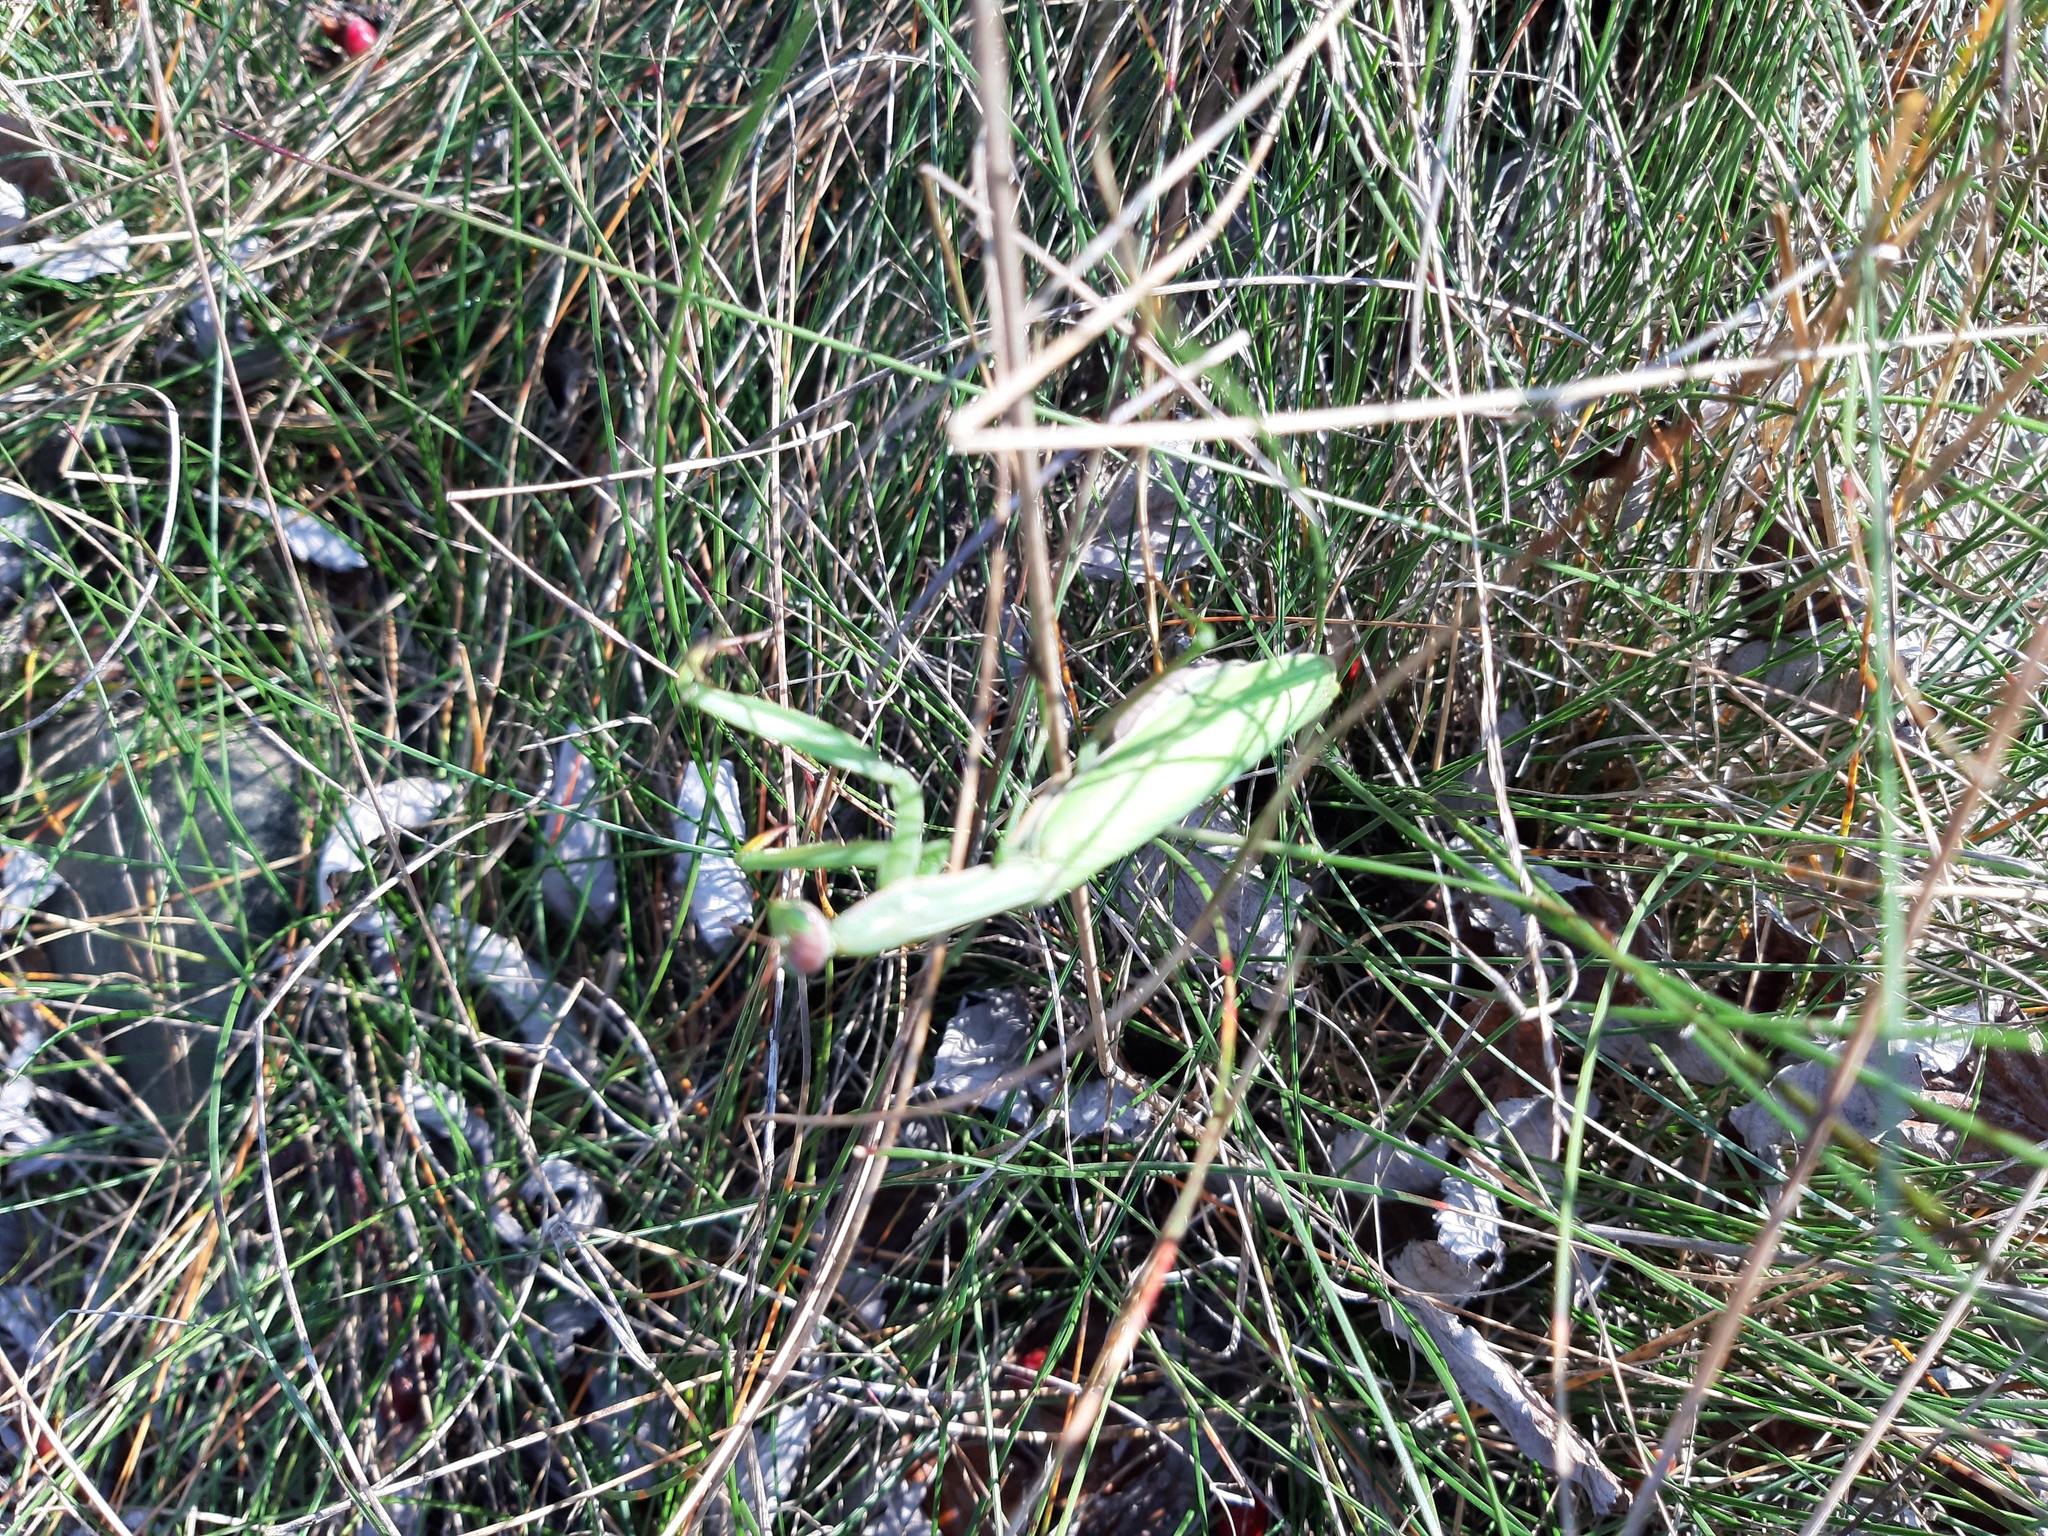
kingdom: Animalia
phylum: Arthropoda
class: Insecta
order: Mantodea
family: Mantidae
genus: Mantis
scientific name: Mantis religiosa
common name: Praying mantis
